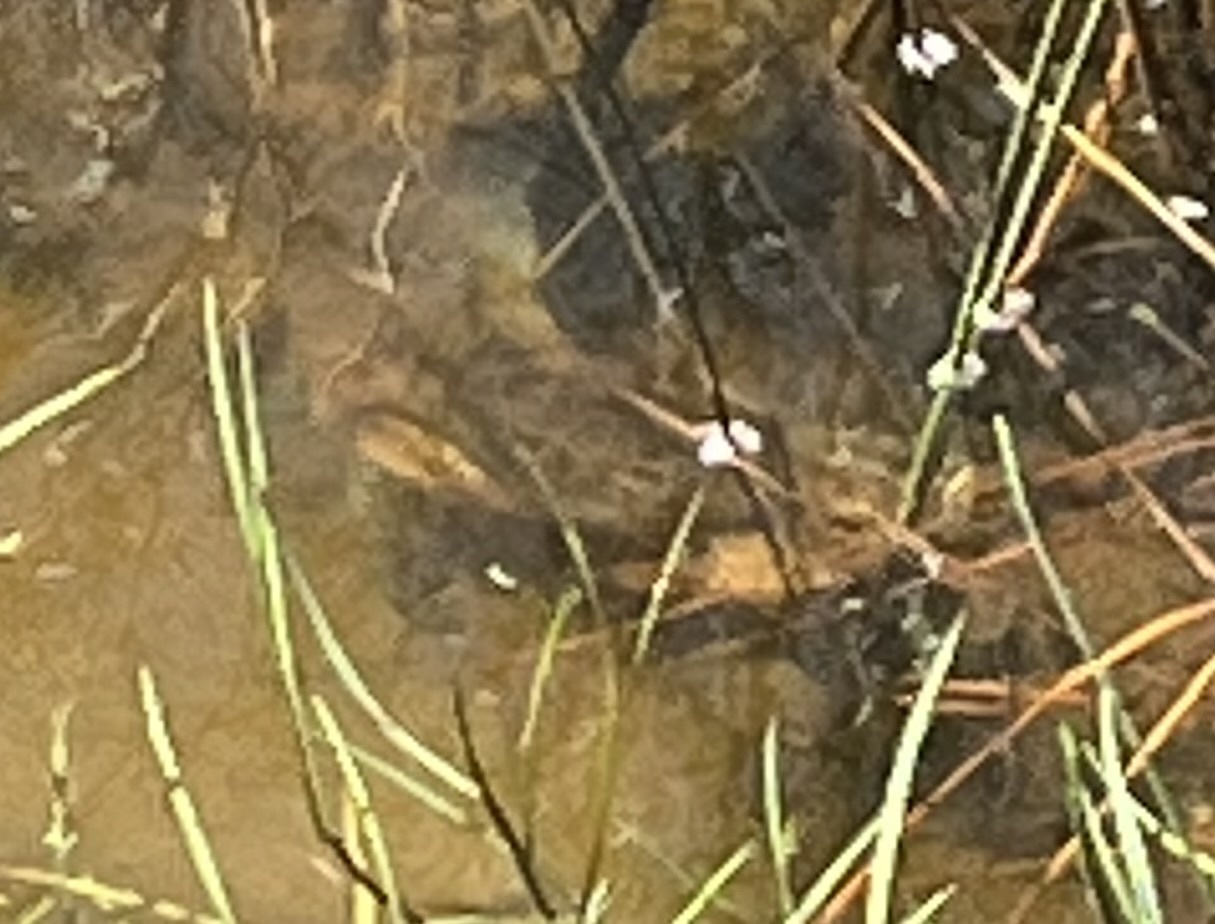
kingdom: Animalia
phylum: Arthropoda
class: Malacostraca
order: Decapoda
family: Portunidae
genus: Callinectes
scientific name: Callinectes sapidus
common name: Blue crab
